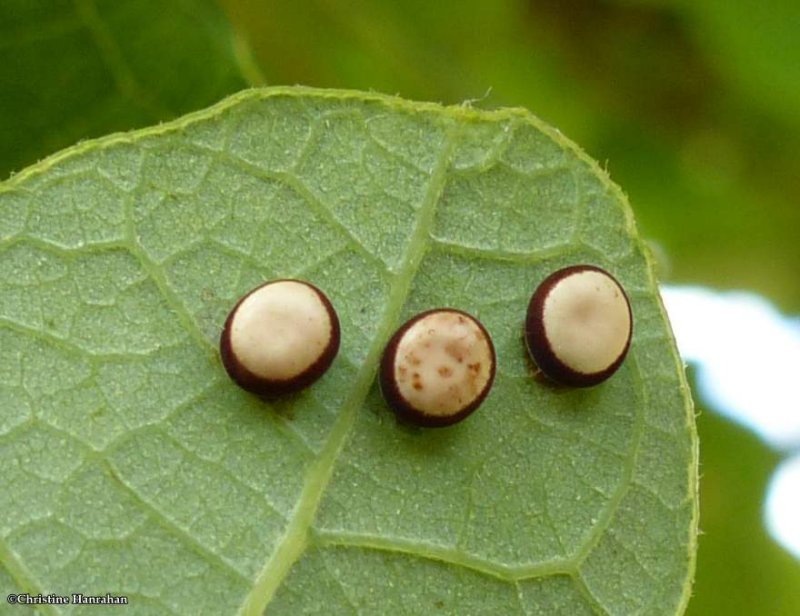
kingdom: Animalia
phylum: Arthropoda
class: Insecta
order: Lepidoptera
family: Saturniidae
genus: Antheraea
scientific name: Antheraea polyphemus
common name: Polyphemus moth
